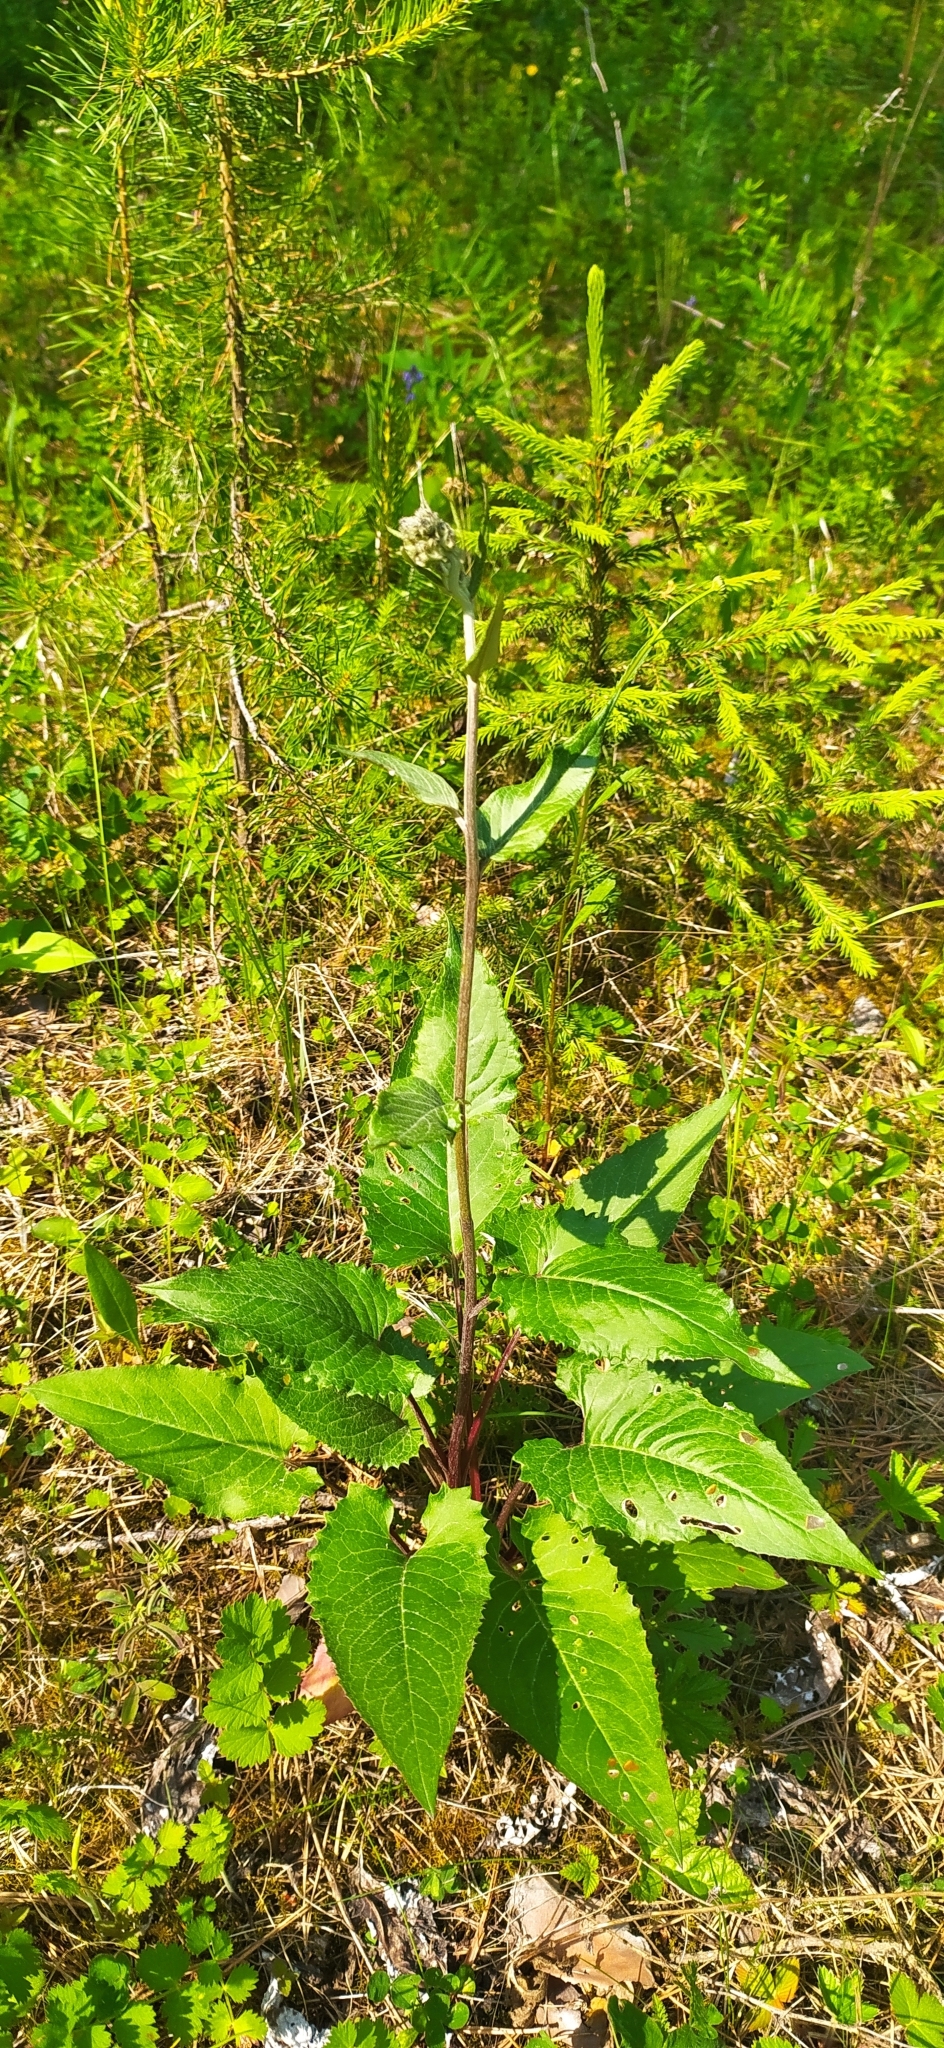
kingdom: Plantae
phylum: Tracheophyta
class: Magnoliopsida
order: Asterales
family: Asteraceae
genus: Saussurea
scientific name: Saussurea controversa
